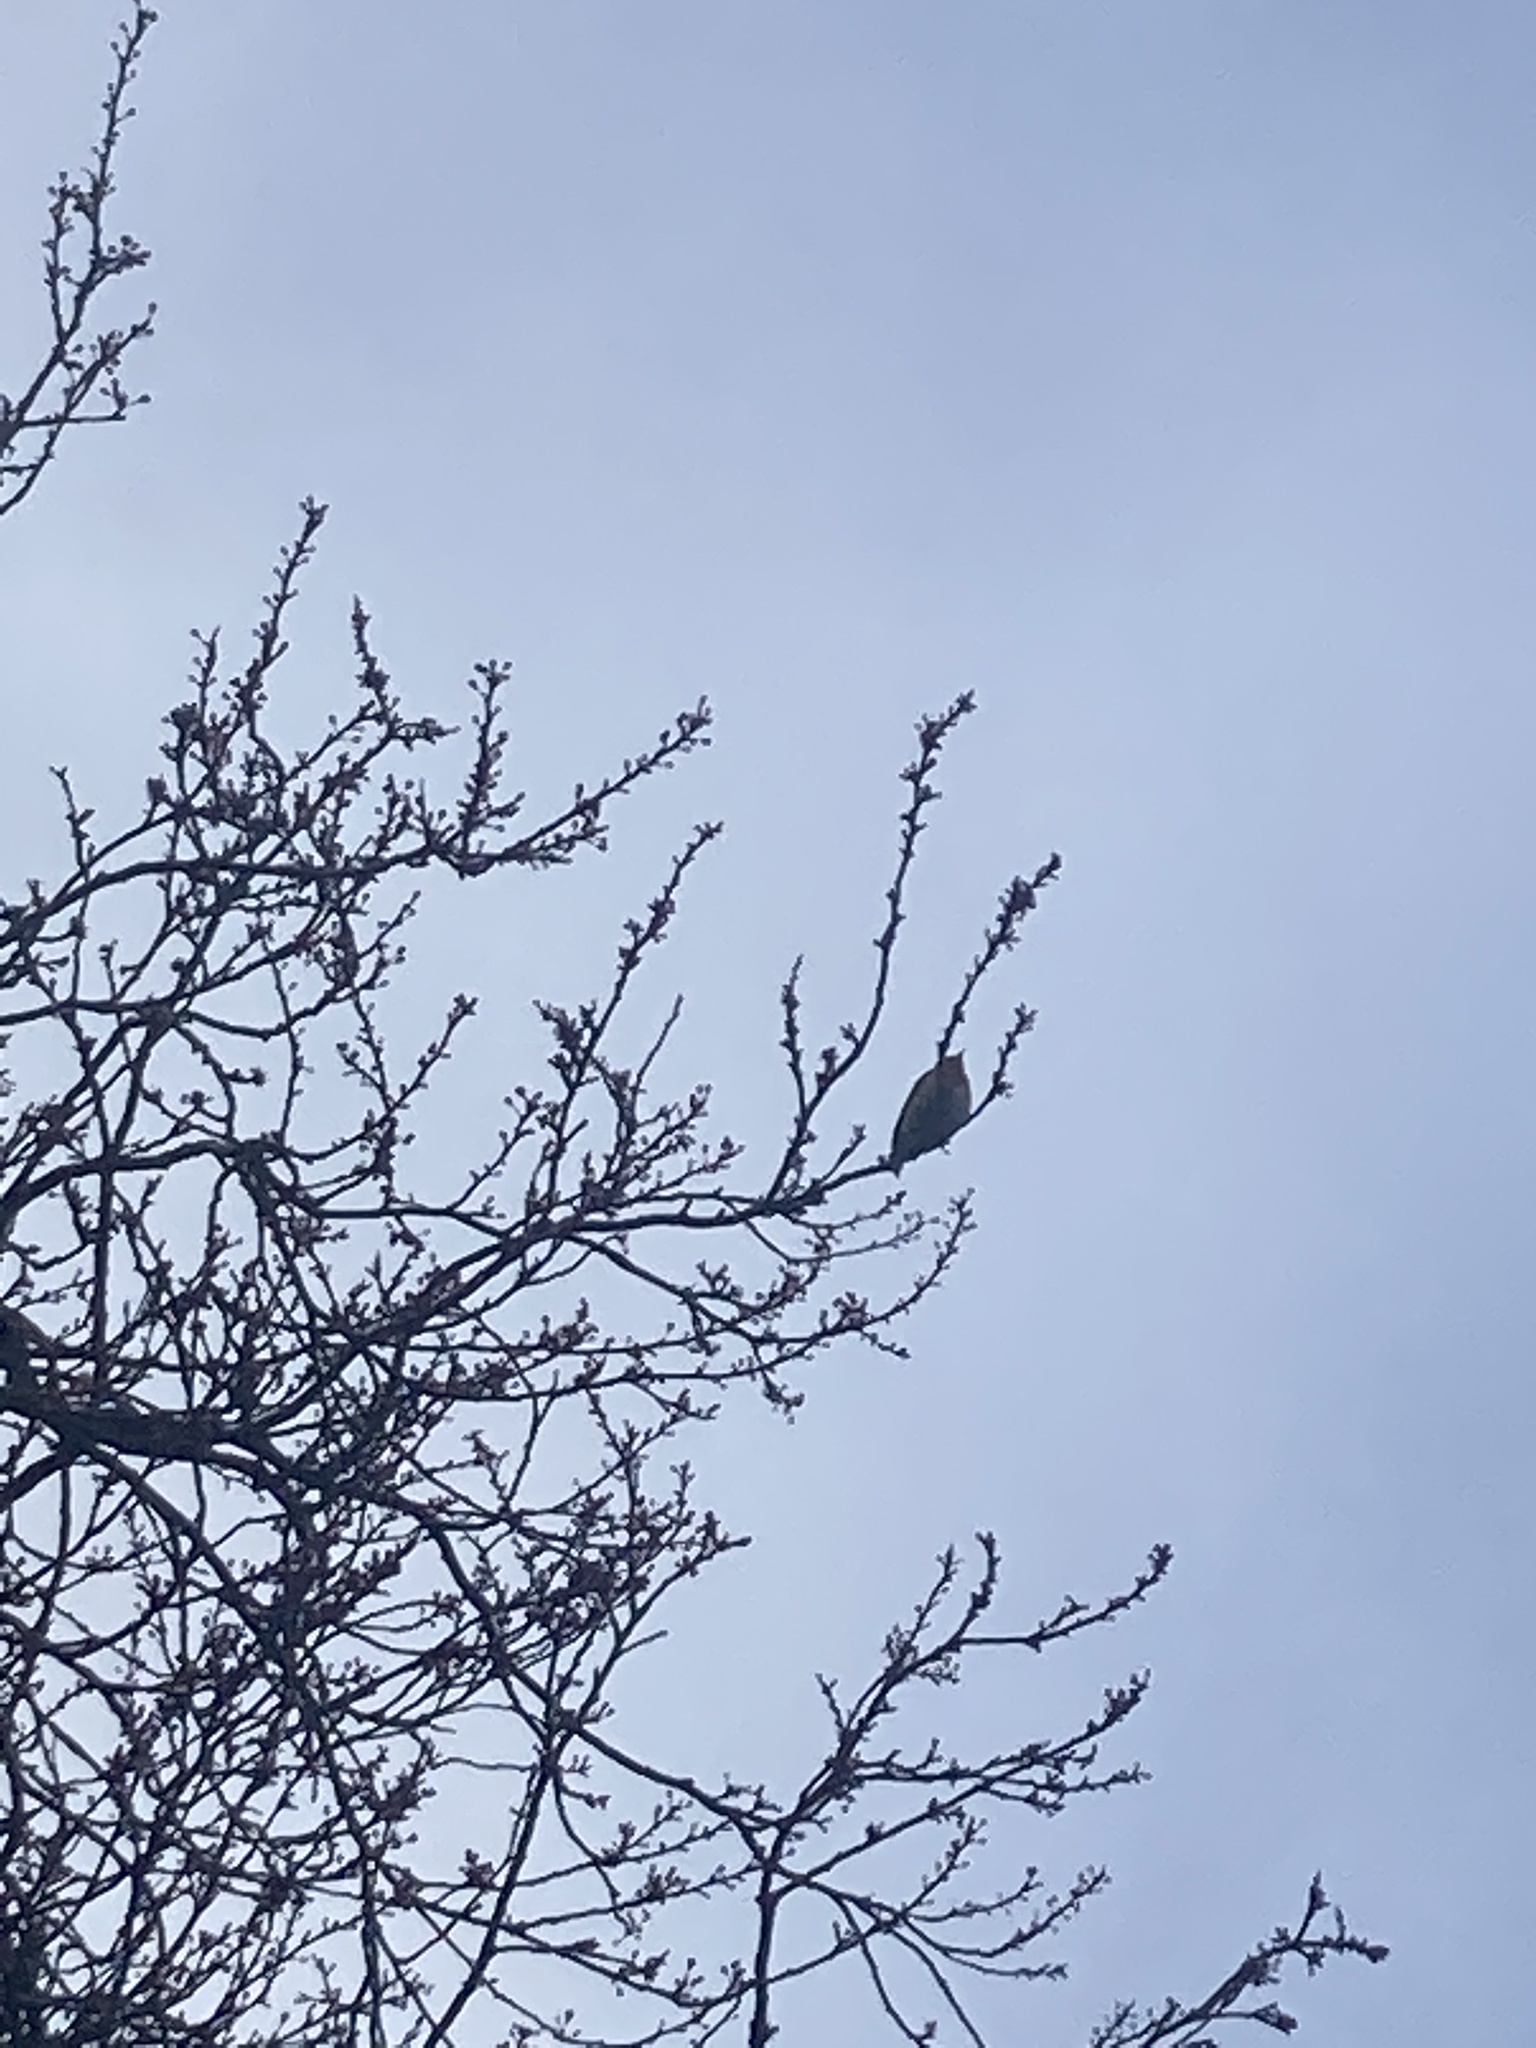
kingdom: Animalia
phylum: Chordata
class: Aves
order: Passeriformes
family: Muscicapidae
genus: Erithacus
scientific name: Erithacus rubecula
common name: European robin
